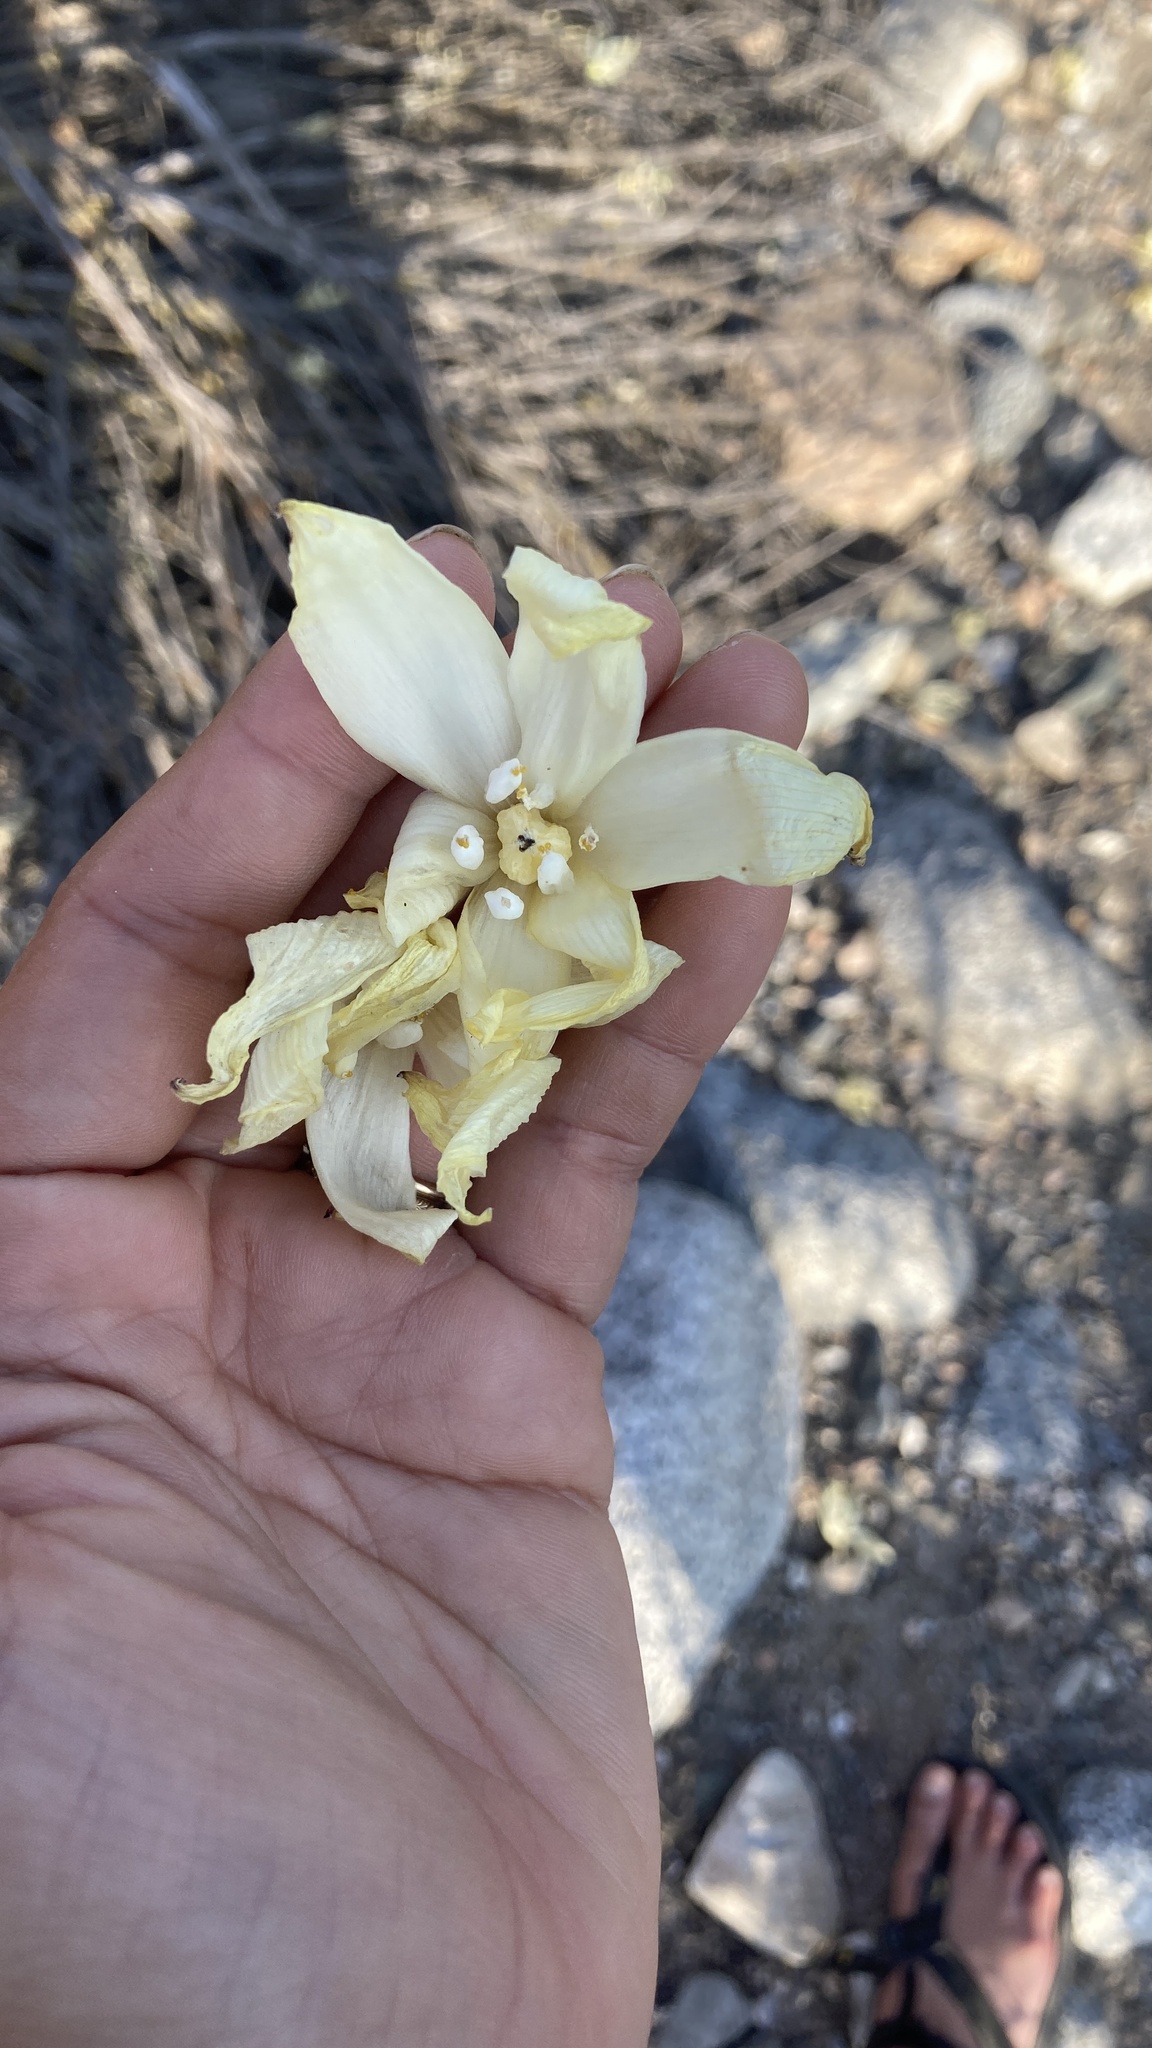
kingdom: Plantae
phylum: Tracheophyta
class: Liliopsida
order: Asparagales
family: Asparagaceae
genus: Hesperoyucca
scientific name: Hesperoyucca whipplei
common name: Our lord's-candle
